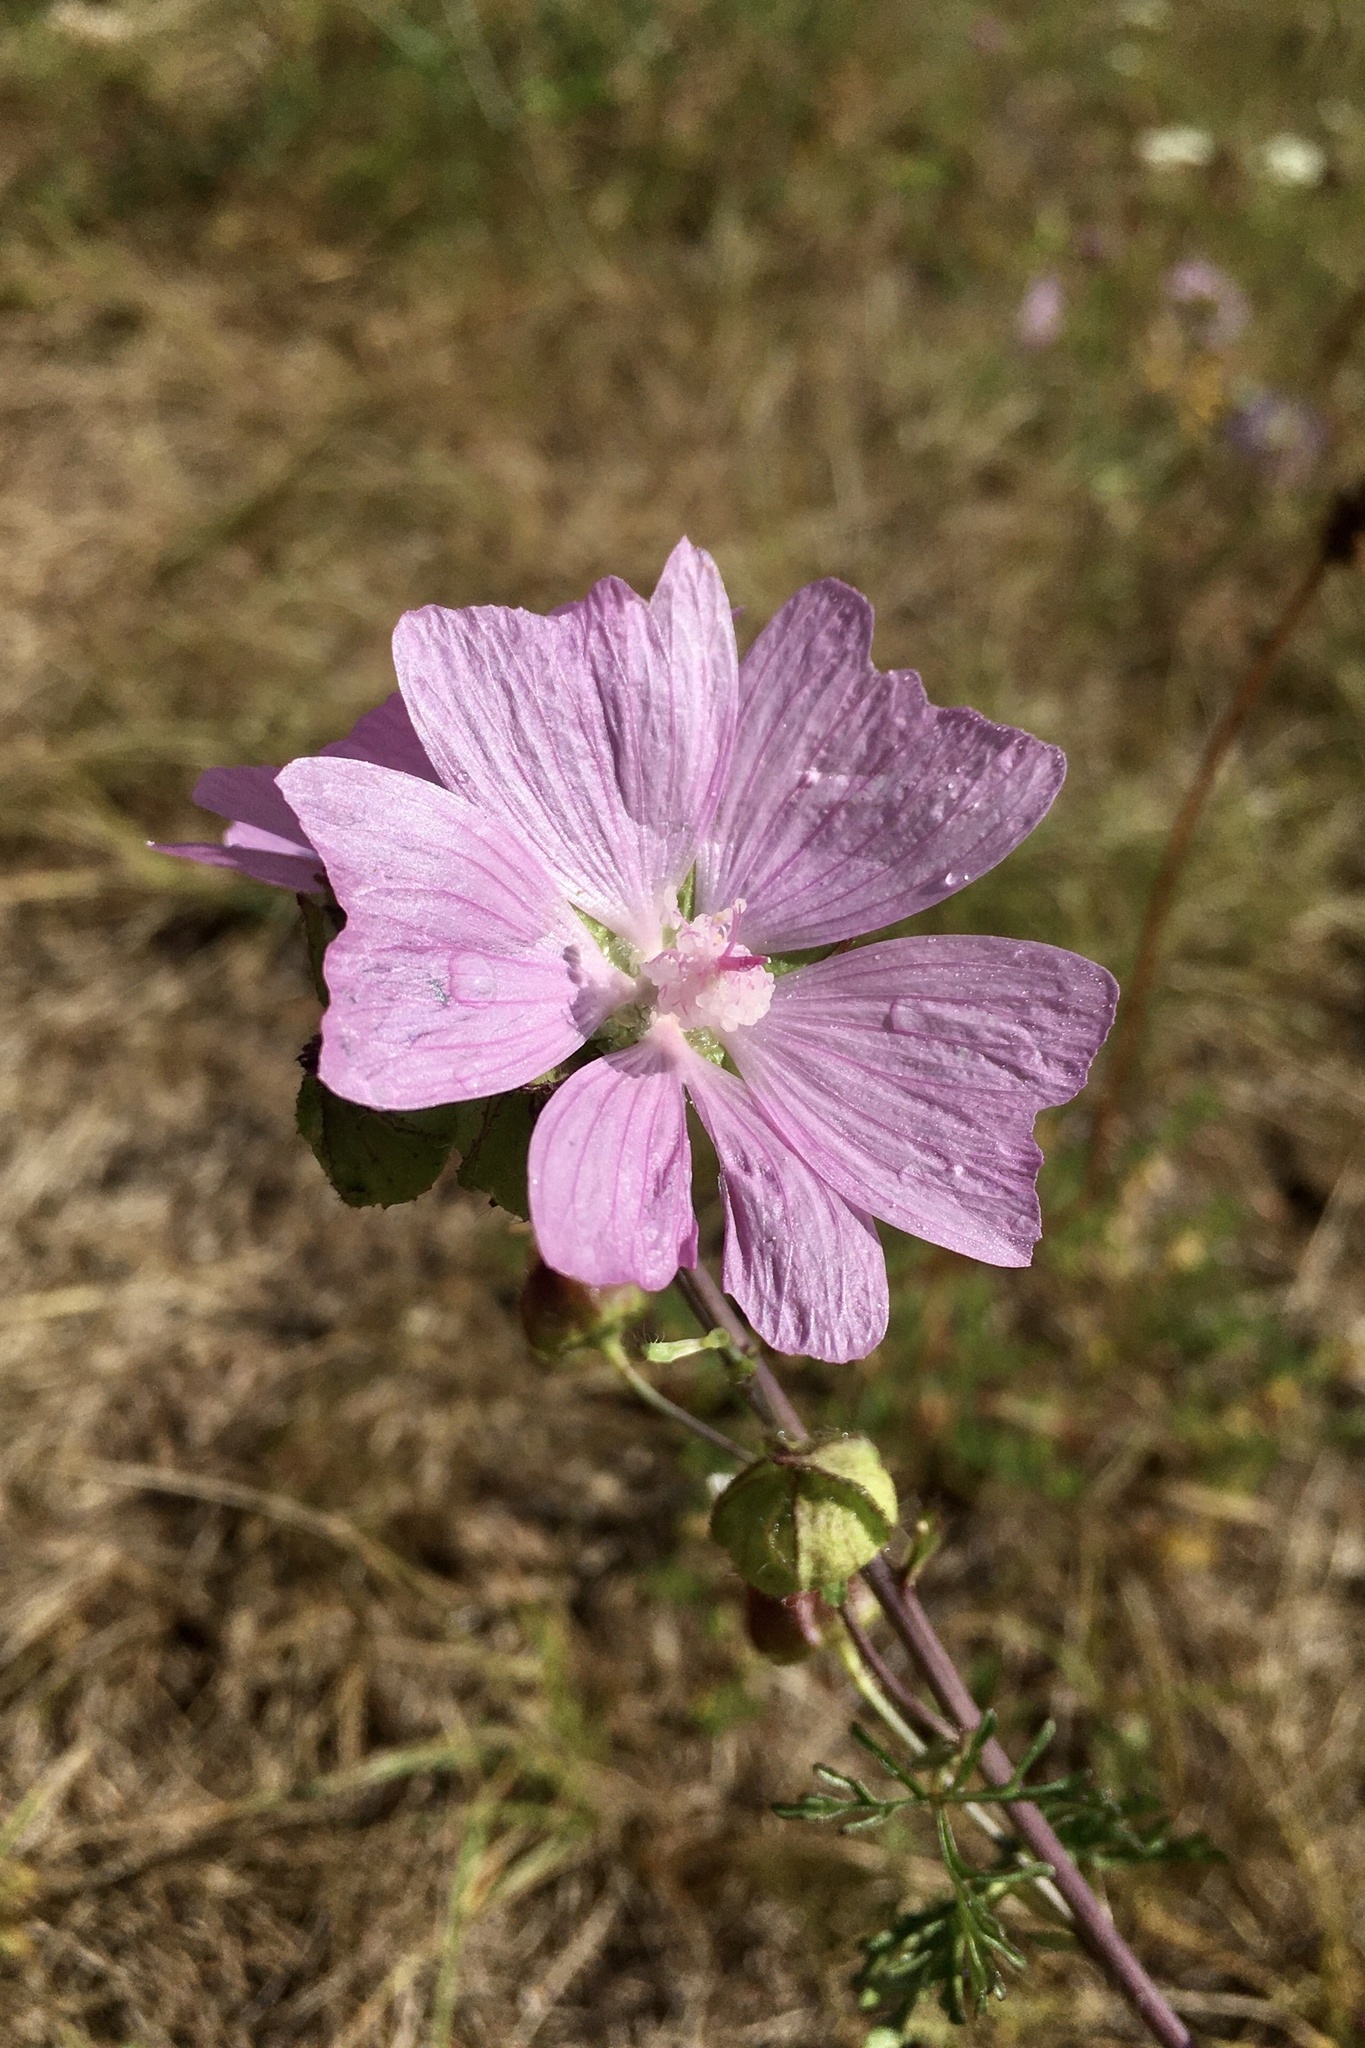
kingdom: Plantae
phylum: Tracheophyta
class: Magnoliopsida
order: Malvales
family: Malvaceae
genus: Malva
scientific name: Malva moschata
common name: Musk mallow
